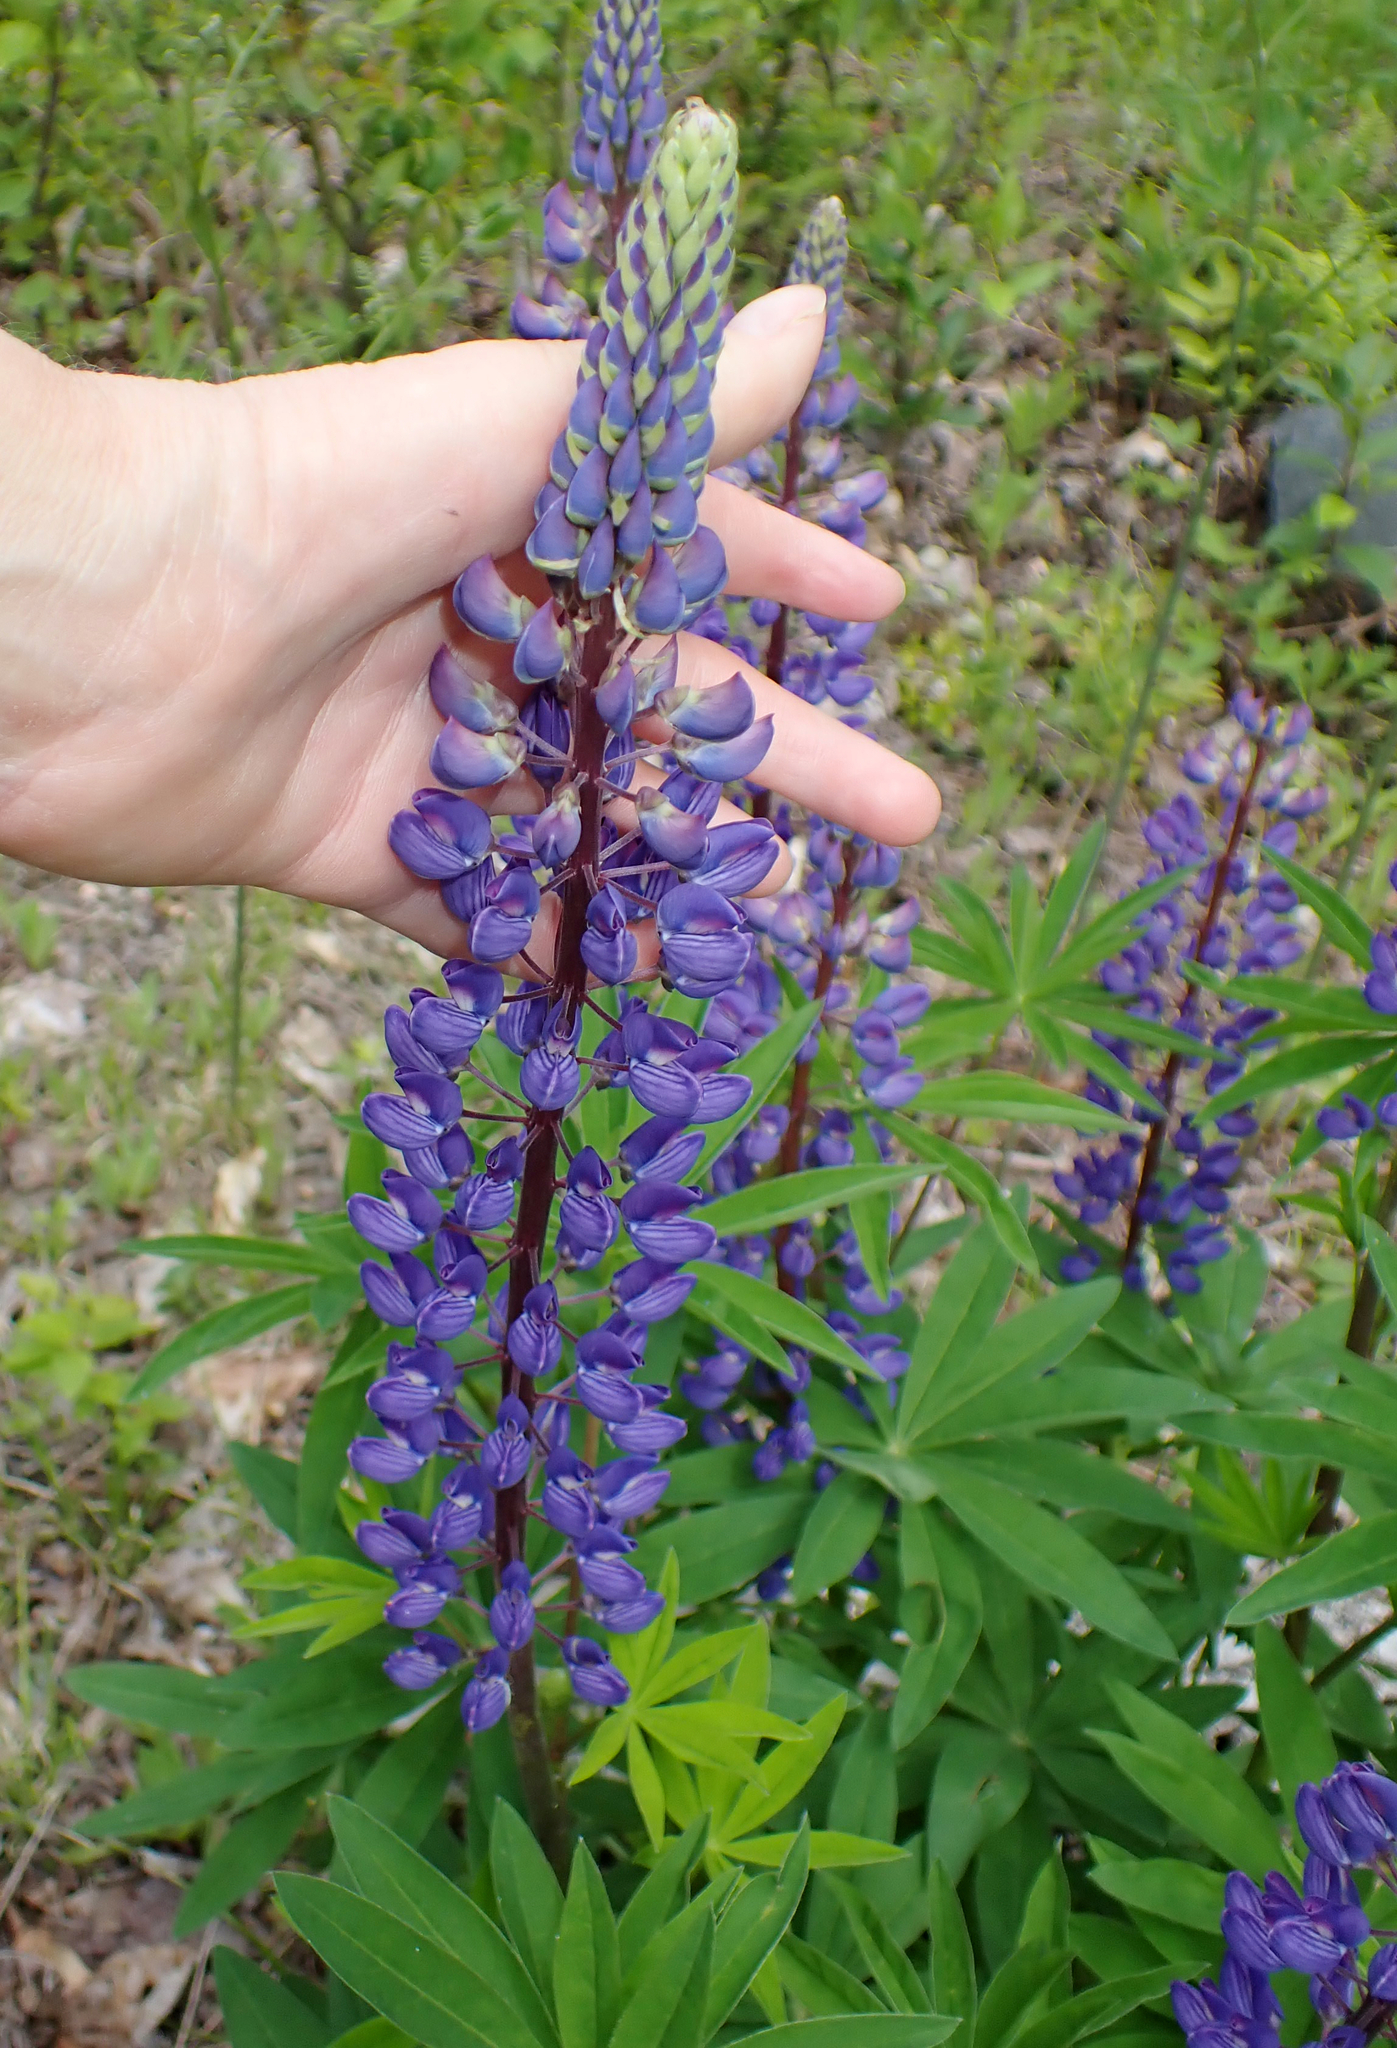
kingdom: Plantae
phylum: Tracheophyta
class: Magnoliopsida
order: Fabales
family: Fabaceae
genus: Lupinus
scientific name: Lupinus polyphyllus
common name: Garden lupin
